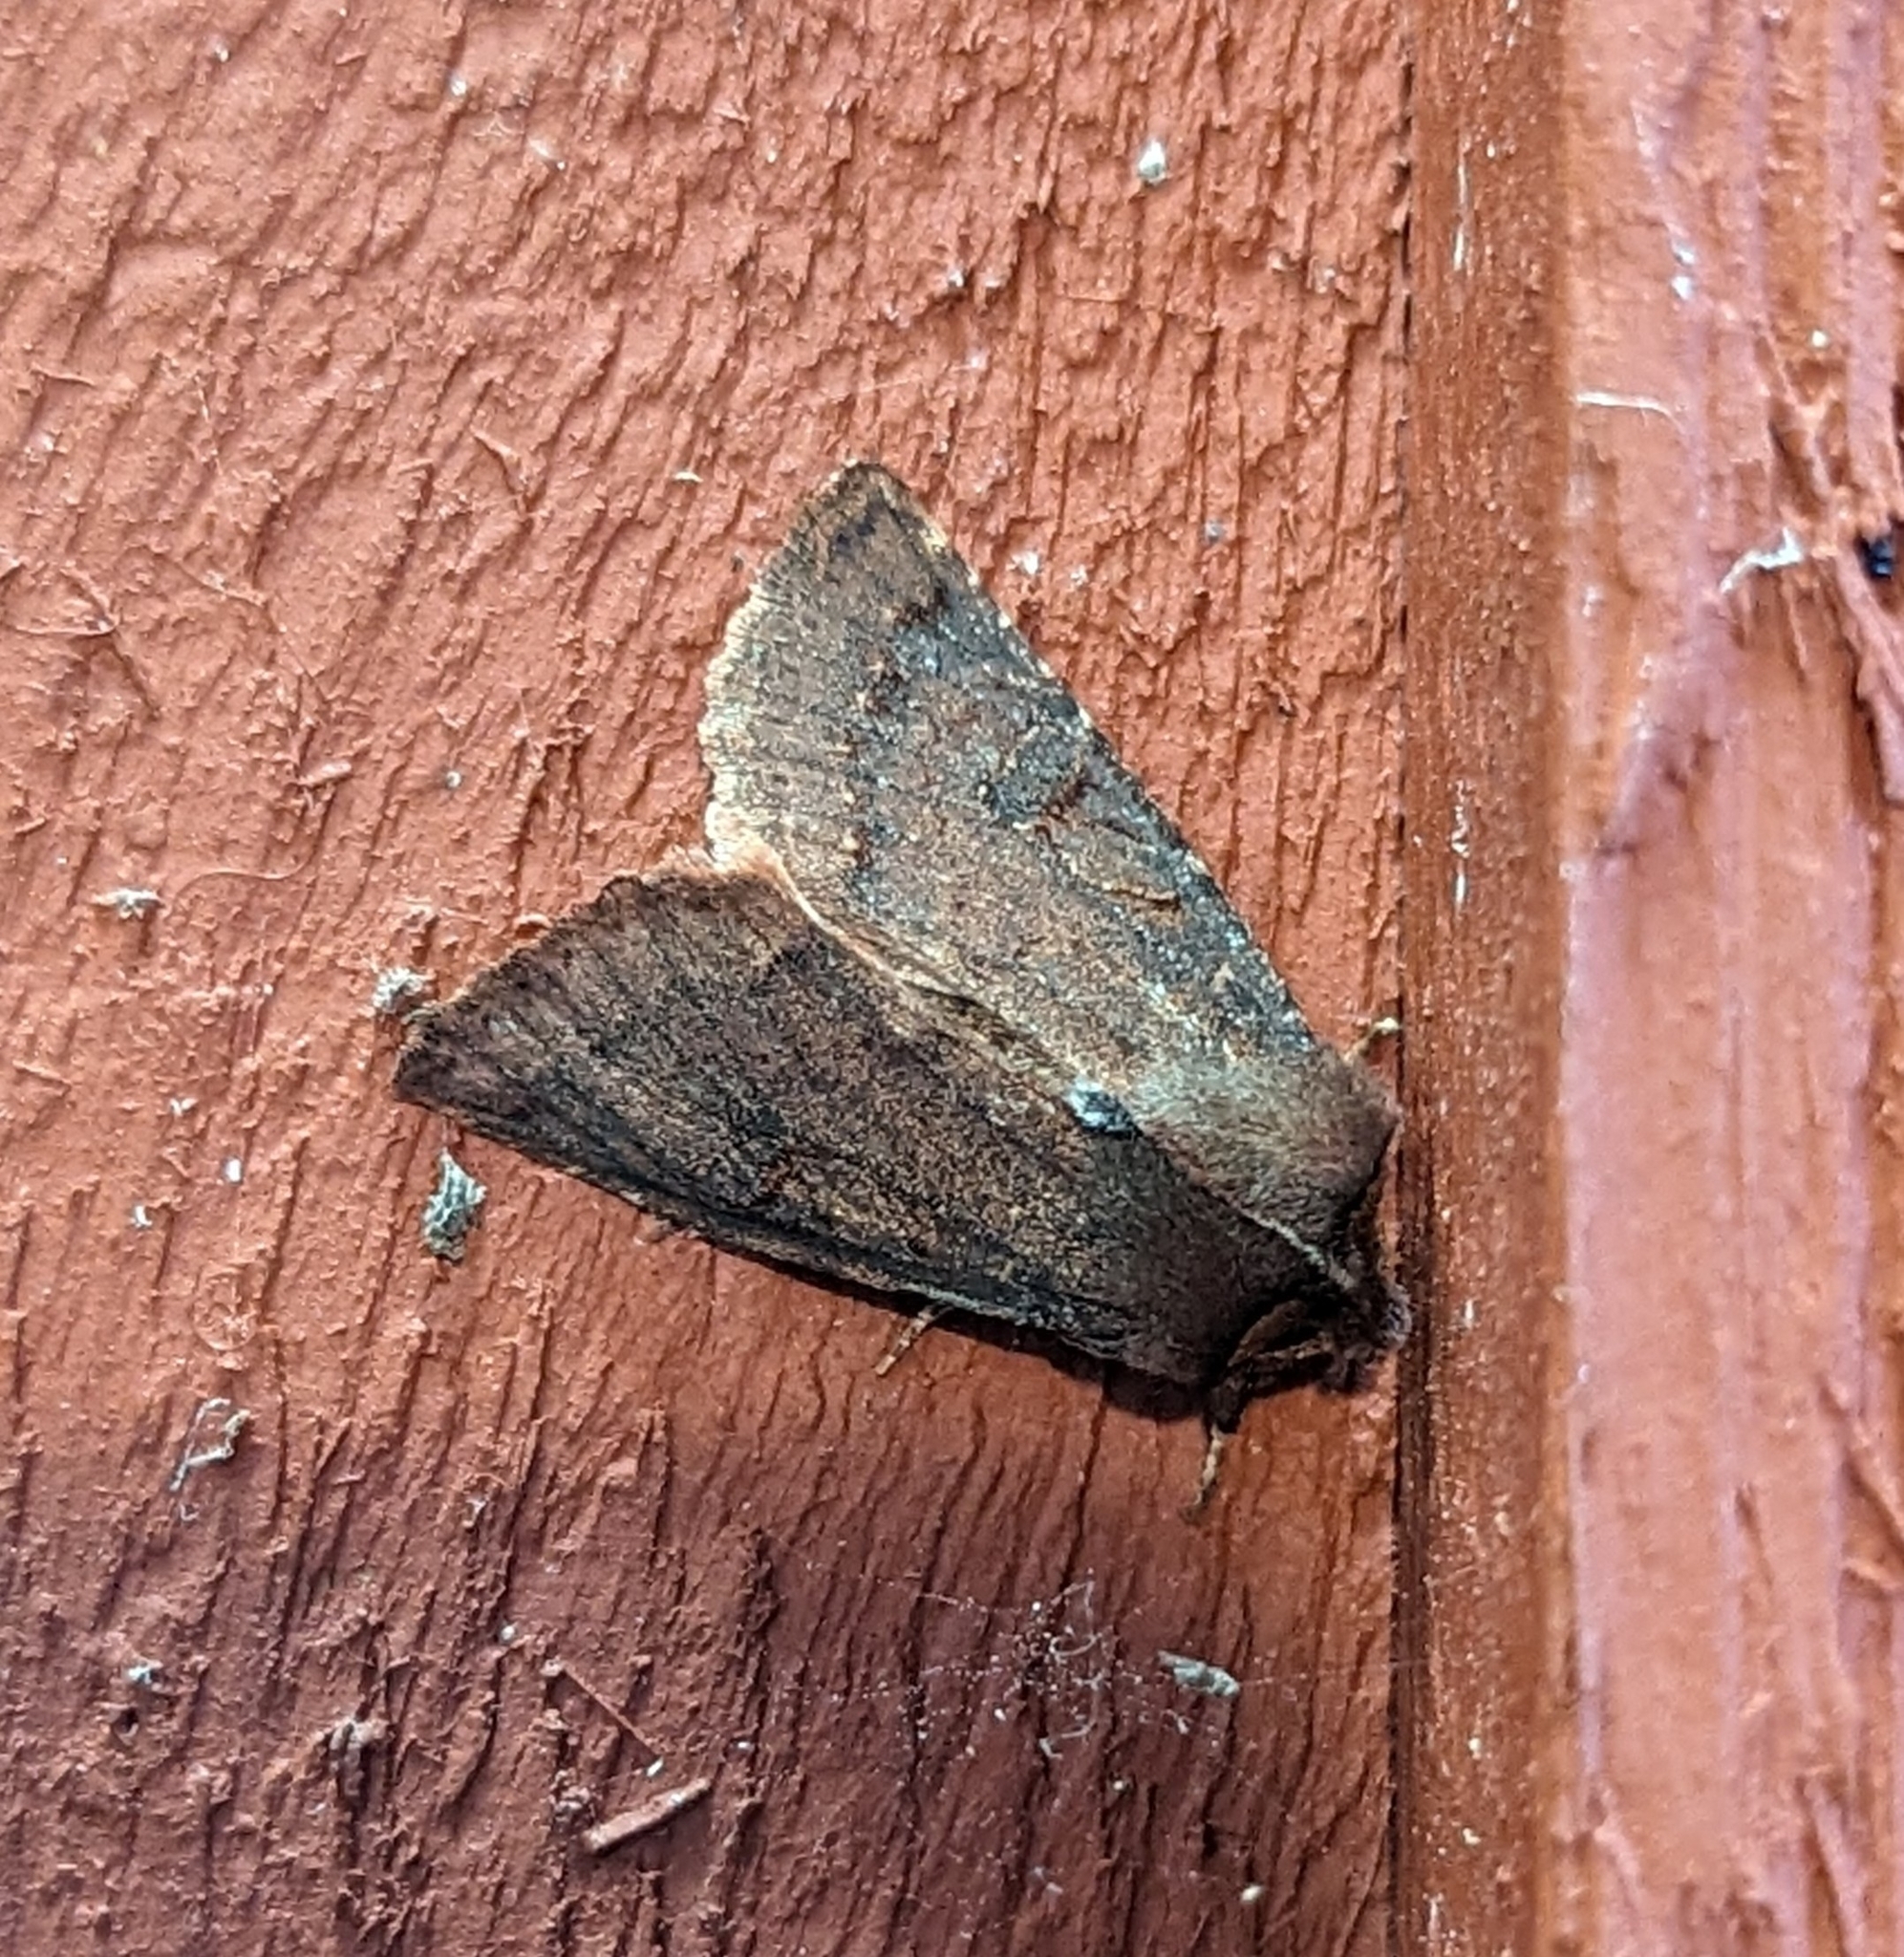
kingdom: Animalia
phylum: Arthropoda
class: Insecta
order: Lepidoptera
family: Noctuidae
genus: Orthosia
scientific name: Orthosia praeses
